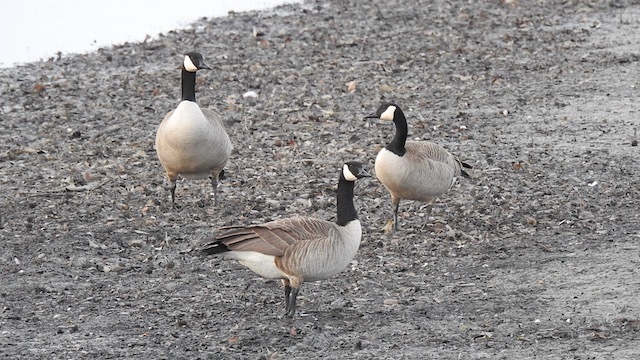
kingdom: Animalia
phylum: Chordata
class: Aves
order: Anseriformes
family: Anatidae
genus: Branta
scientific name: Branta canadensis
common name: Canada goose
